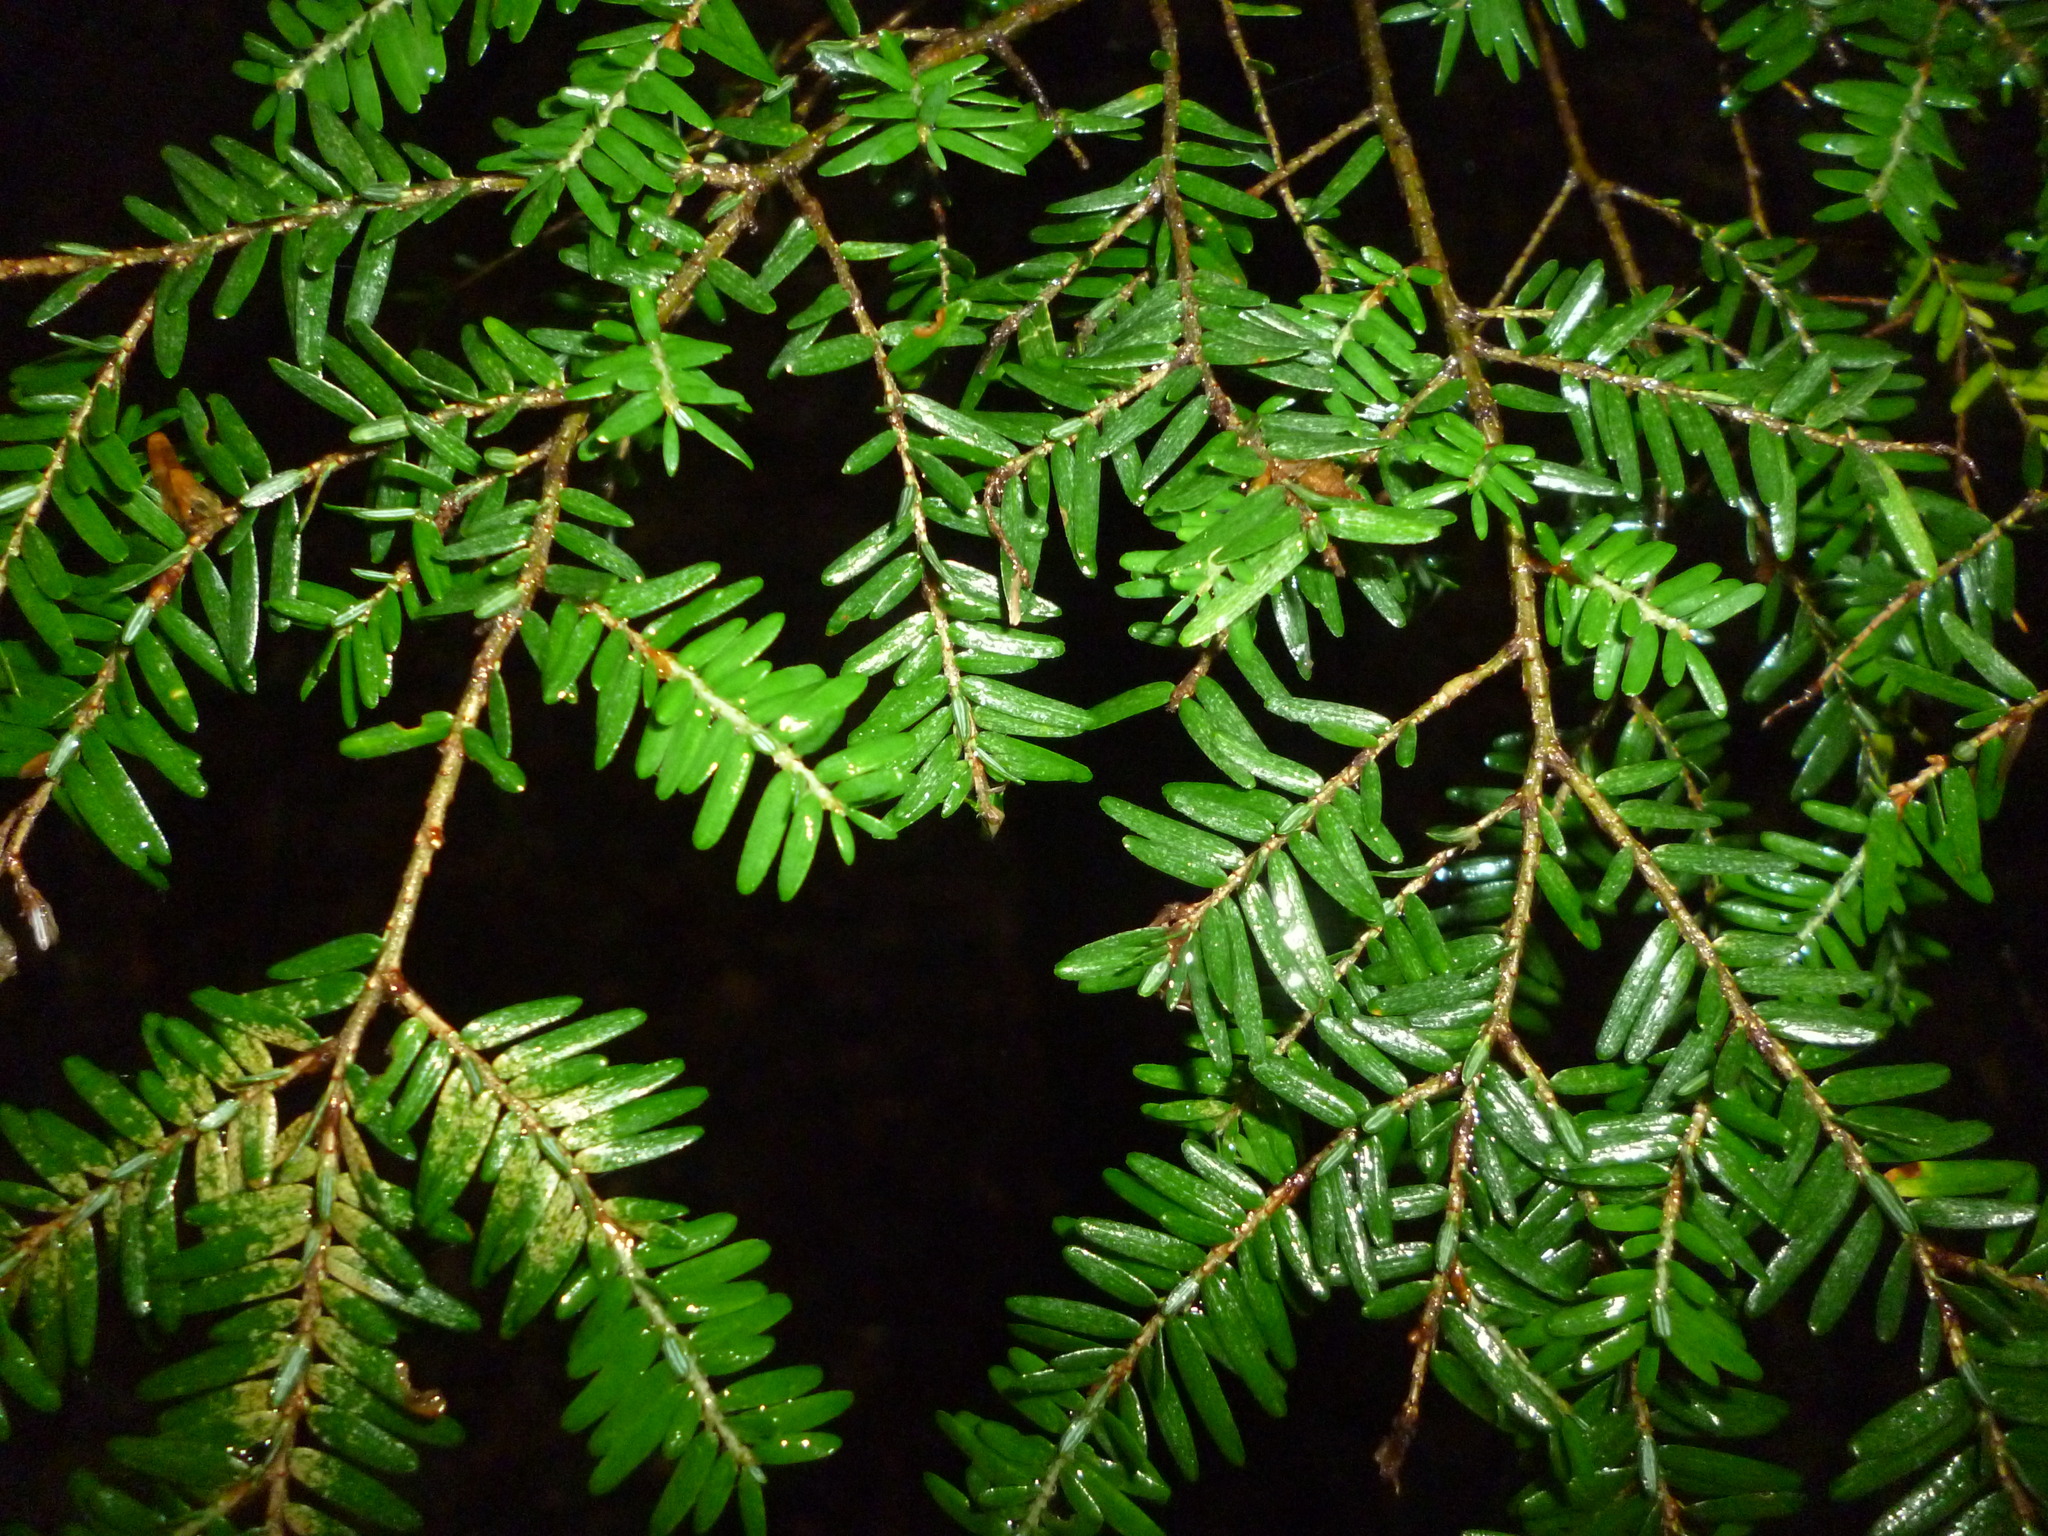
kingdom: Plantae
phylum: Tracheophyta
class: Pinopsida
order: Pinales
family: Pinaceae
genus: Tsuga
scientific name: Tsuga canadensis
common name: Eastern hemlock
